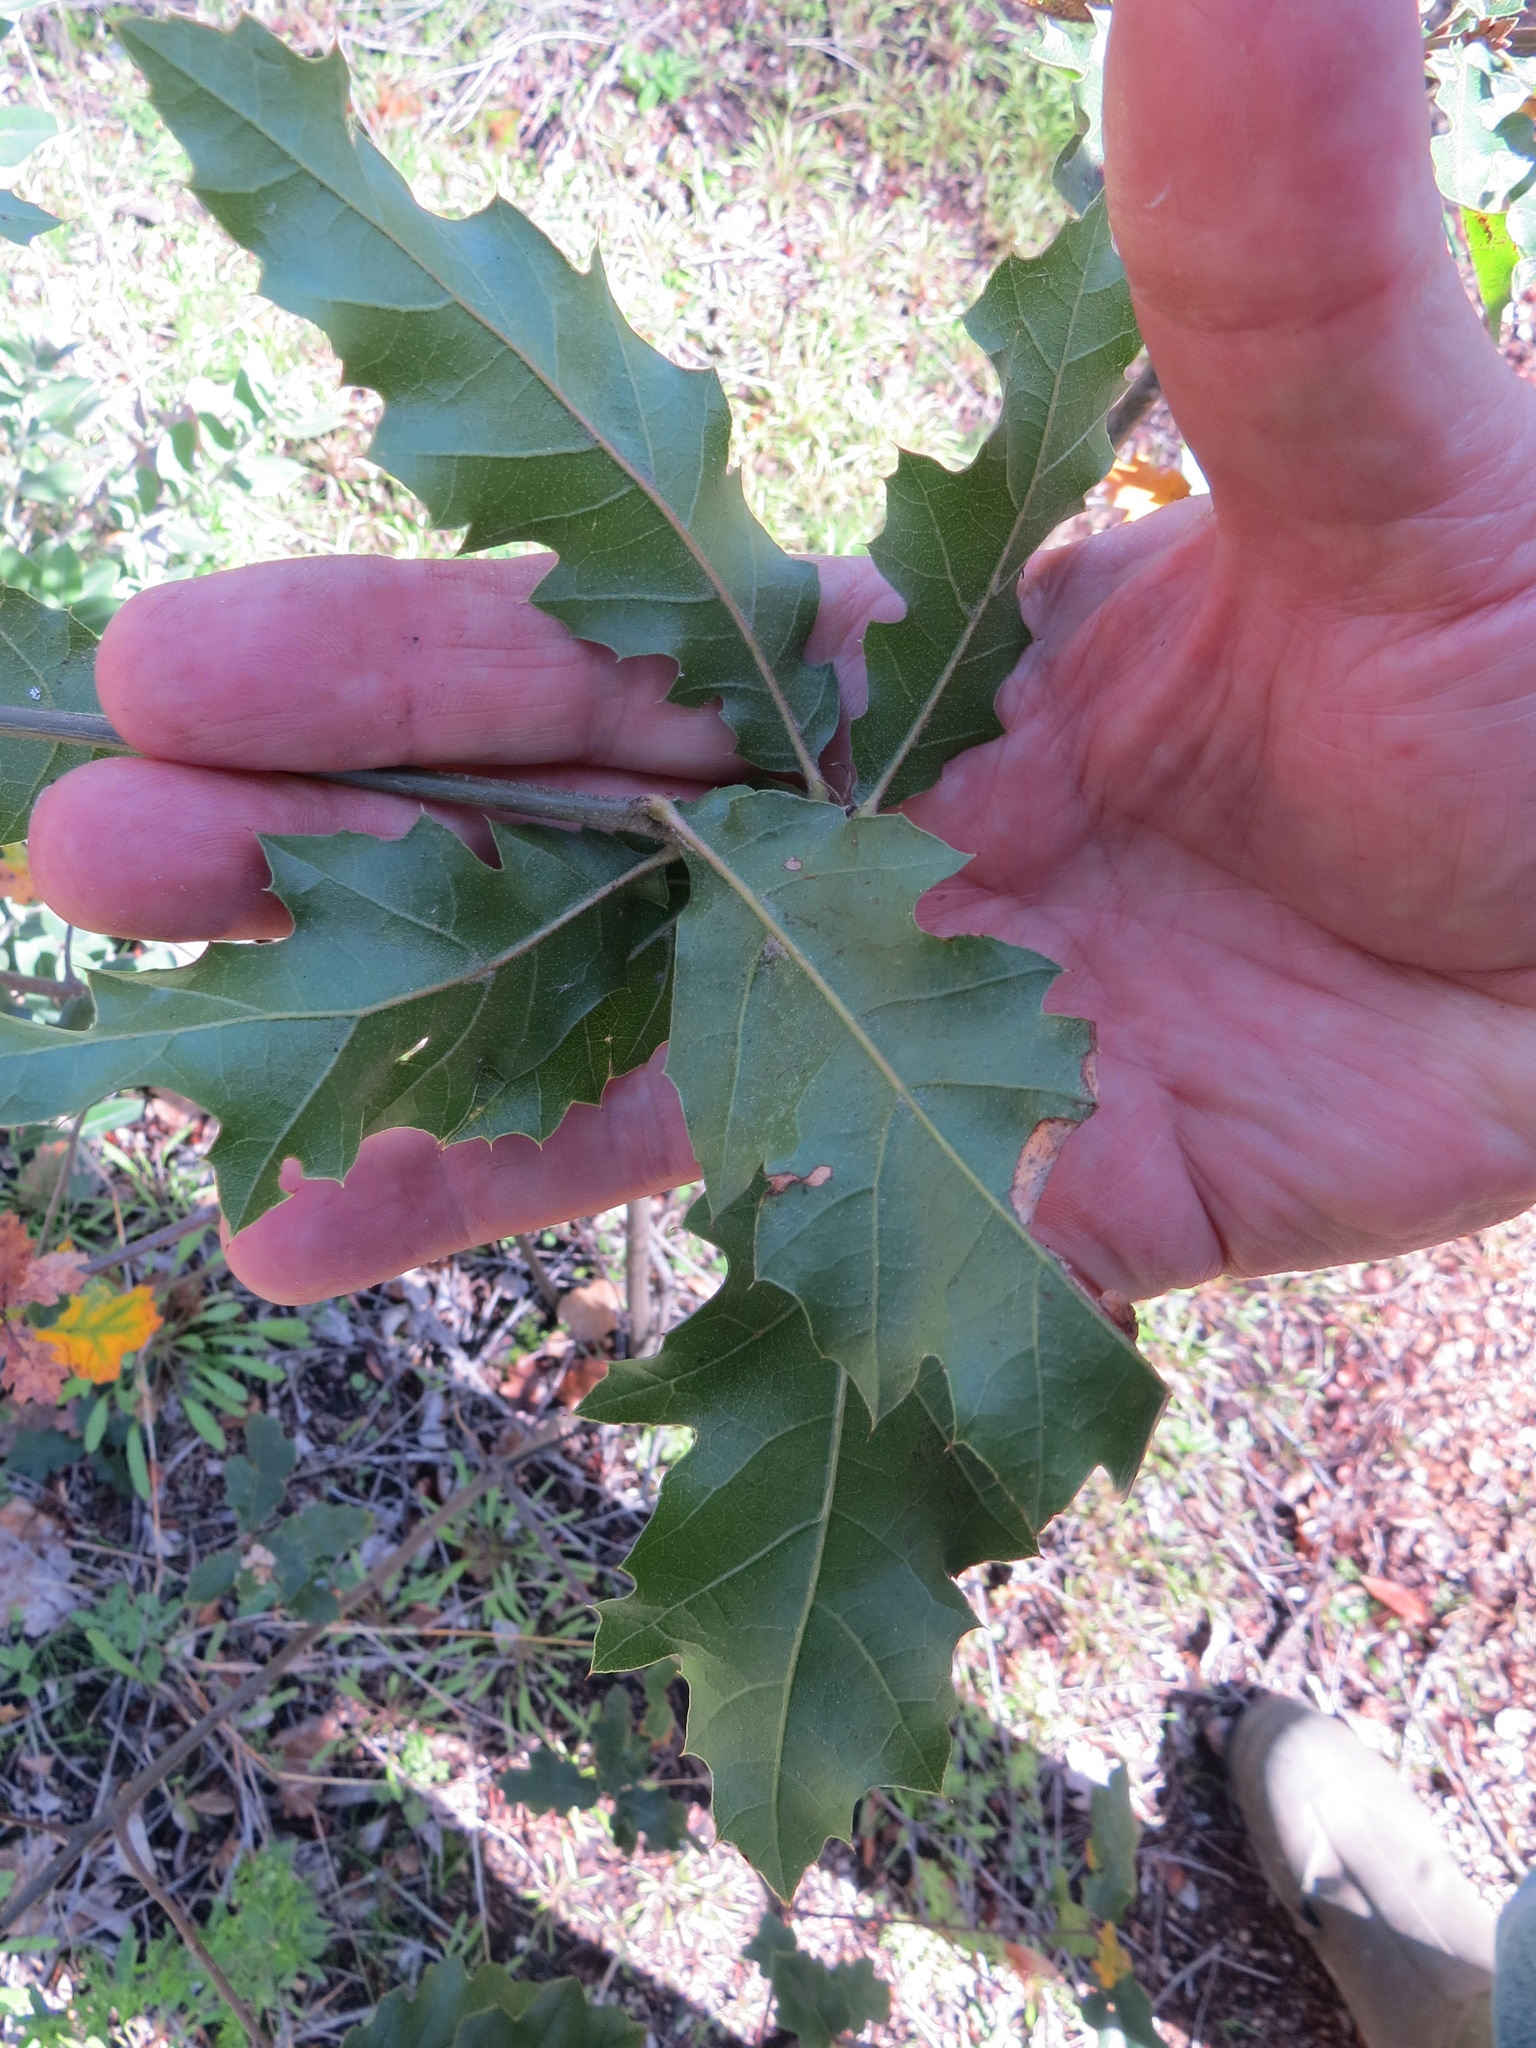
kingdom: Plantae
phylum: Tracheophyta
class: Magnoliopsida
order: Fagales
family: Fagaceae
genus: Quercus
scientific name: Quercus ganderi
